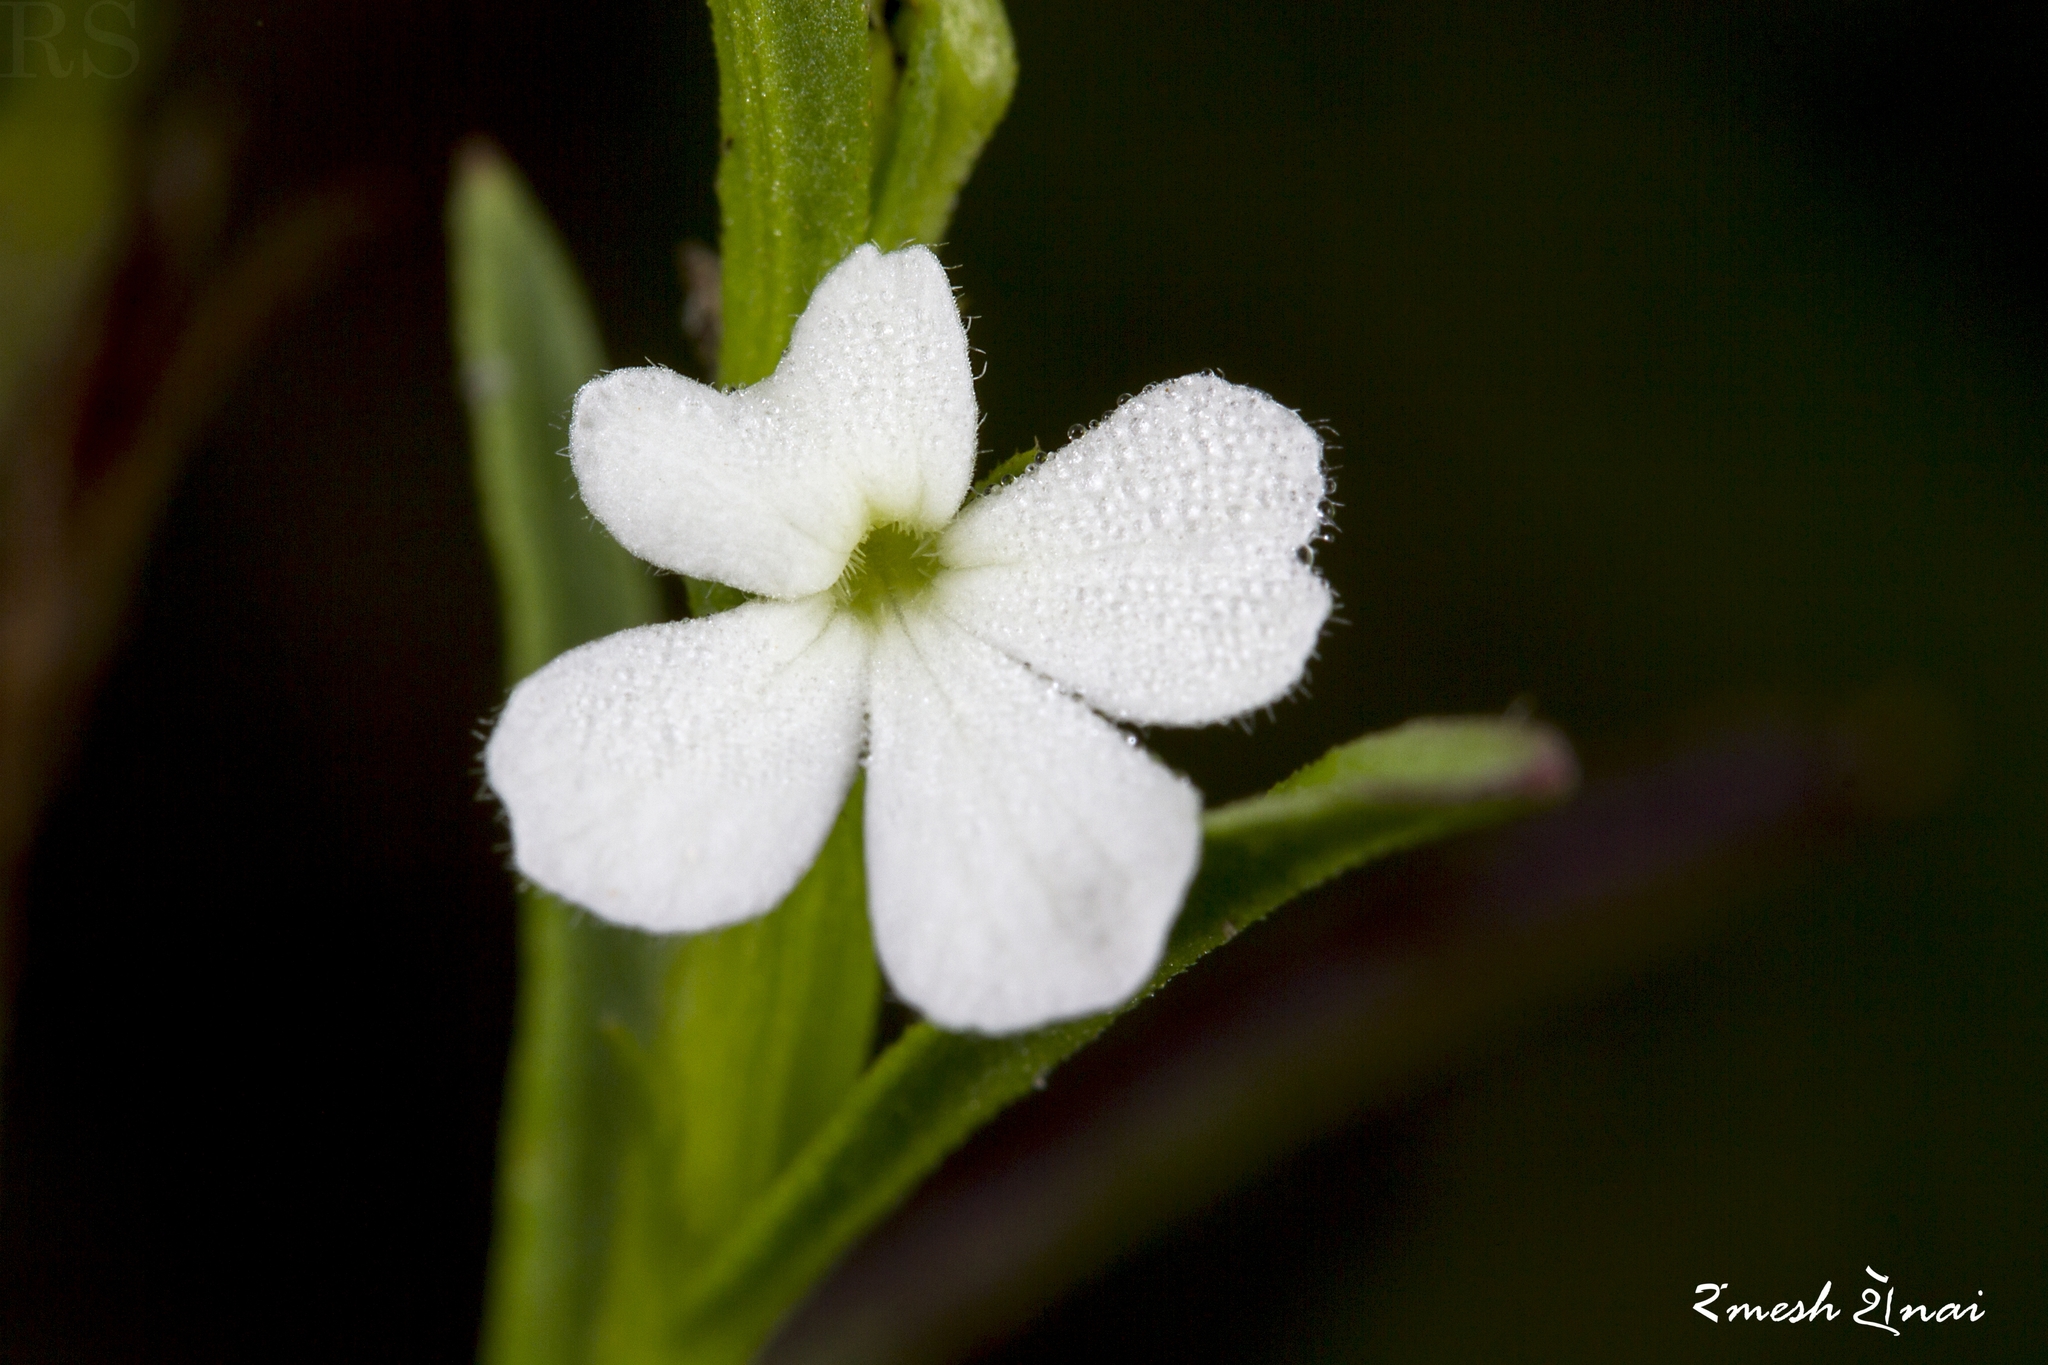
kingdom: Plantae
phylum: Tracheophyta
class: Magnoliopsida
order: Lamiales
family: Orobanchaceae
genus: Striga
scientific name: Striga angustifolia
